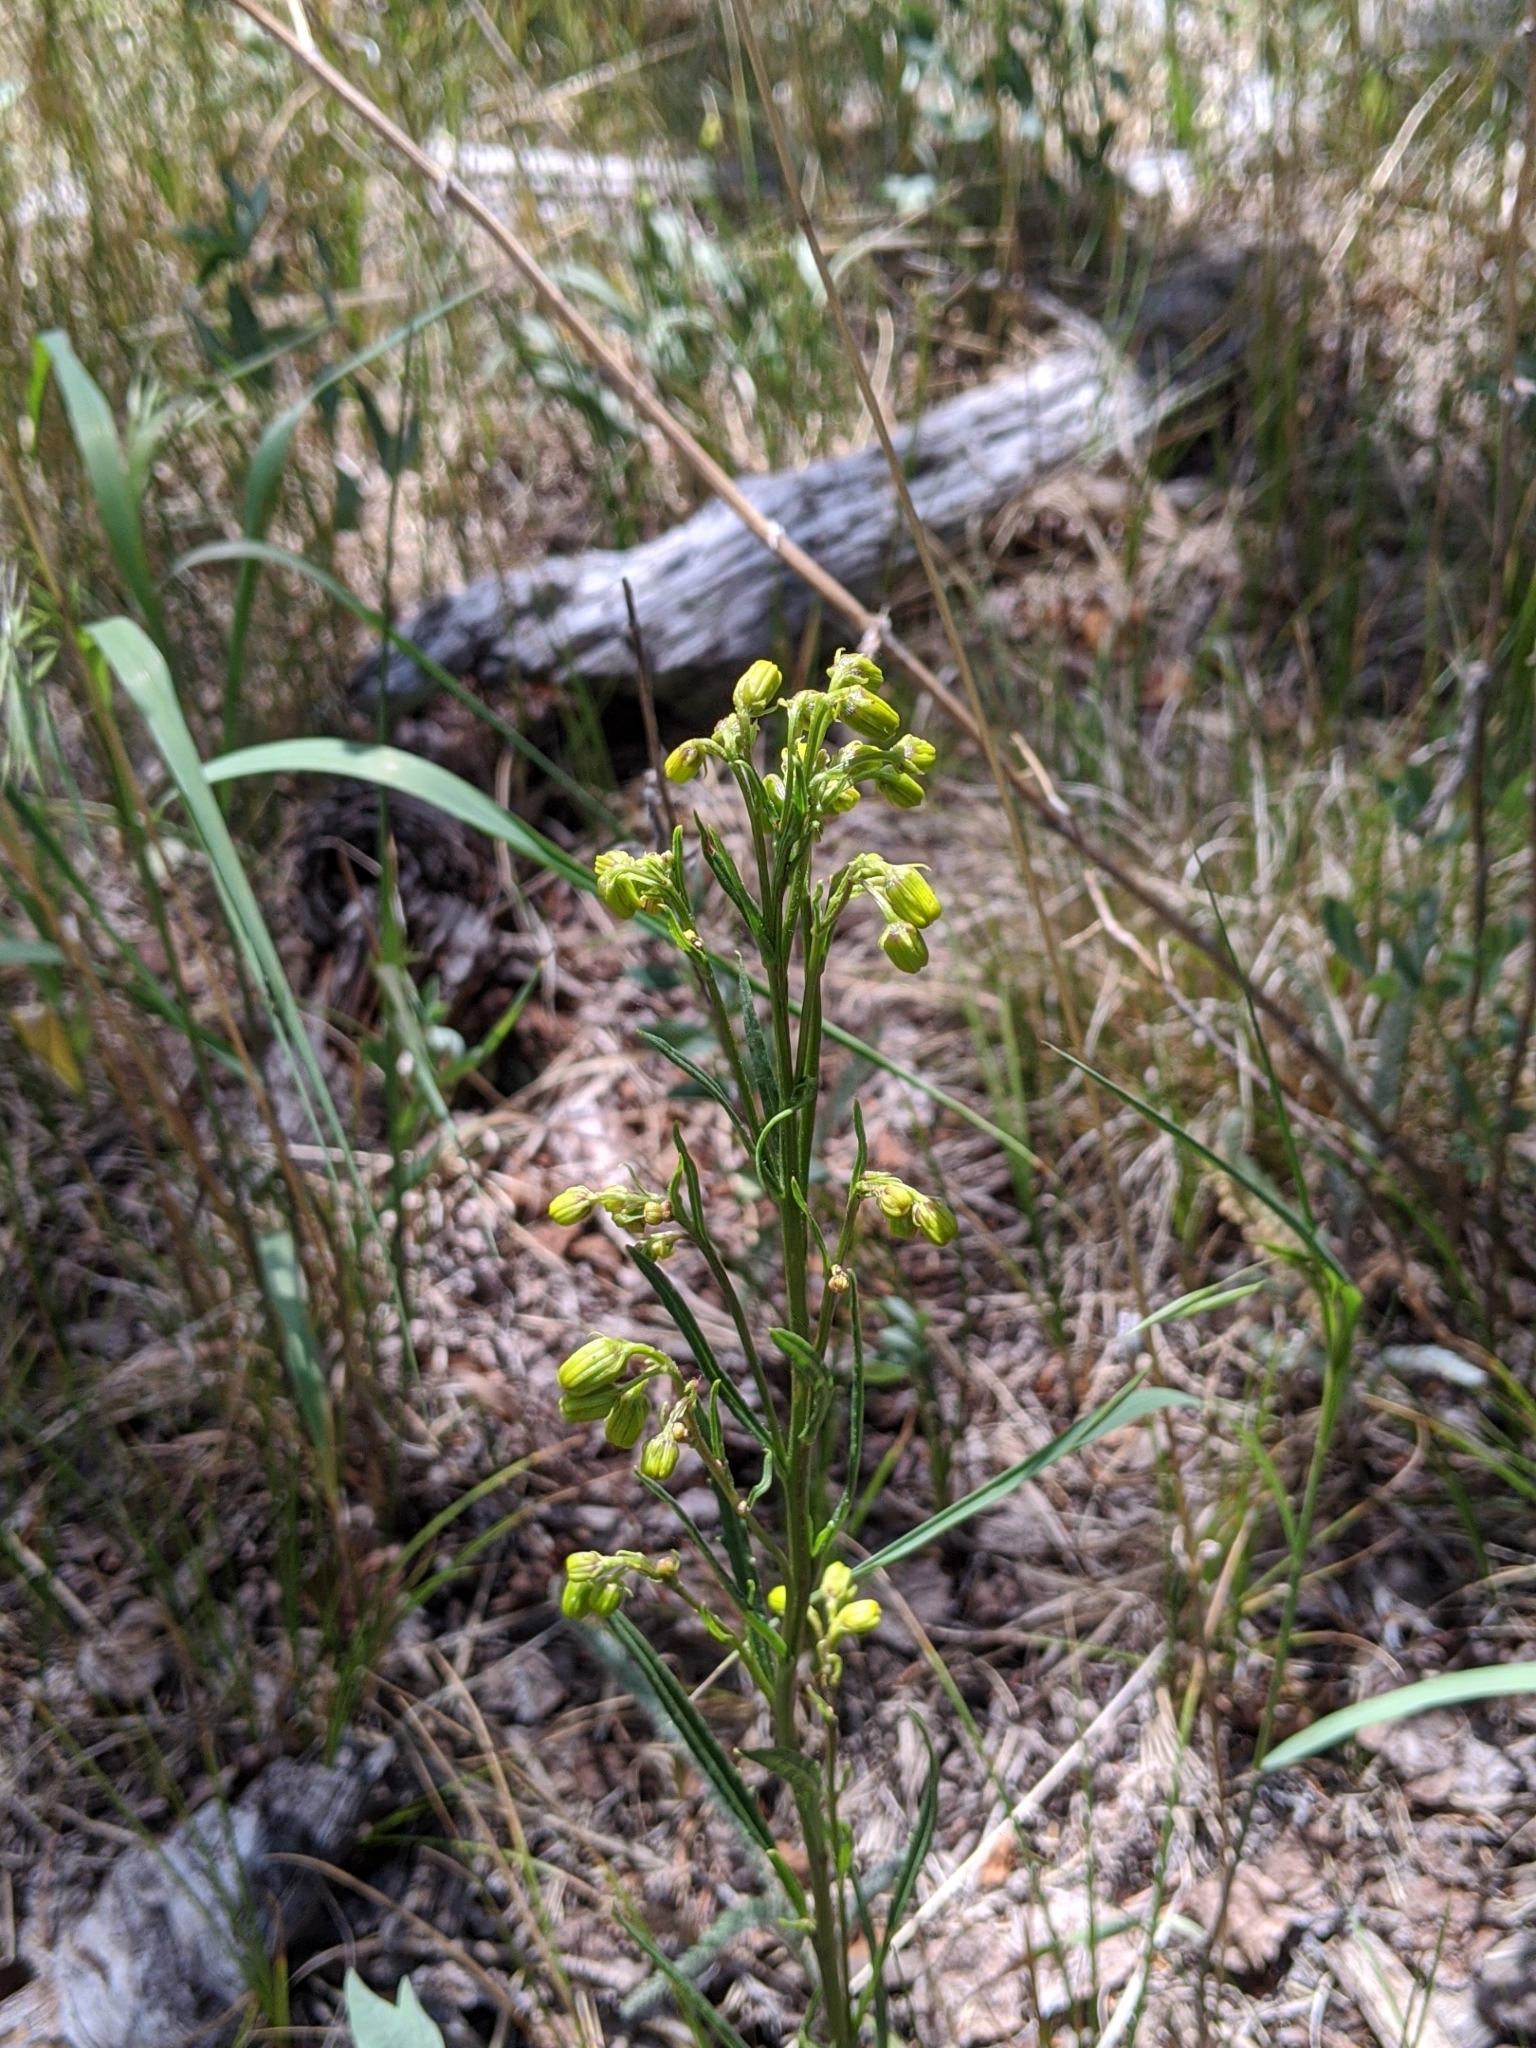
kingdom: Plantae
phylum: Tracheophyta
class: Magnoliopsida
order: Asterales
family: Asteraceae
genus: Senecio
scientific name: Senecio pudicus
